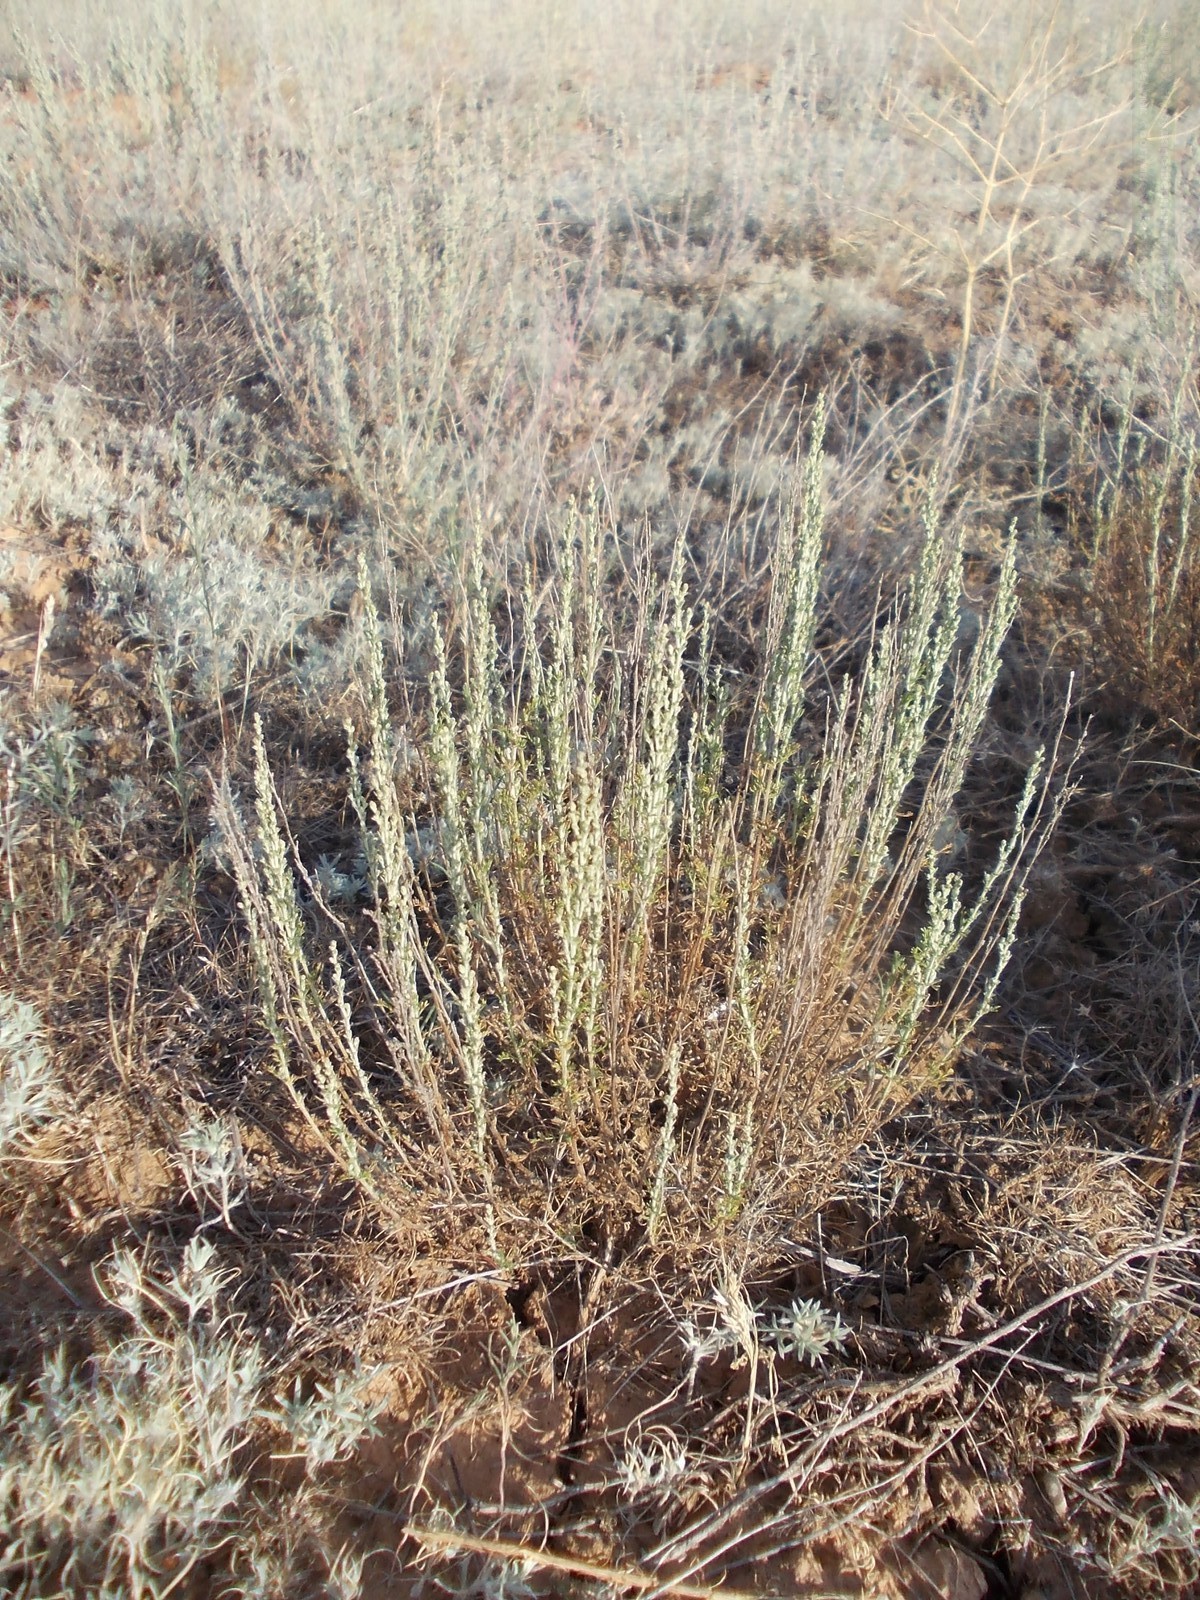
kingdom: Plantae
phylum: Tracheophyta
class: Magnoliopsida
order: Asterales
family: Asteraceae
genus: Artemisia
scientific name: Artemisia pauciflora
